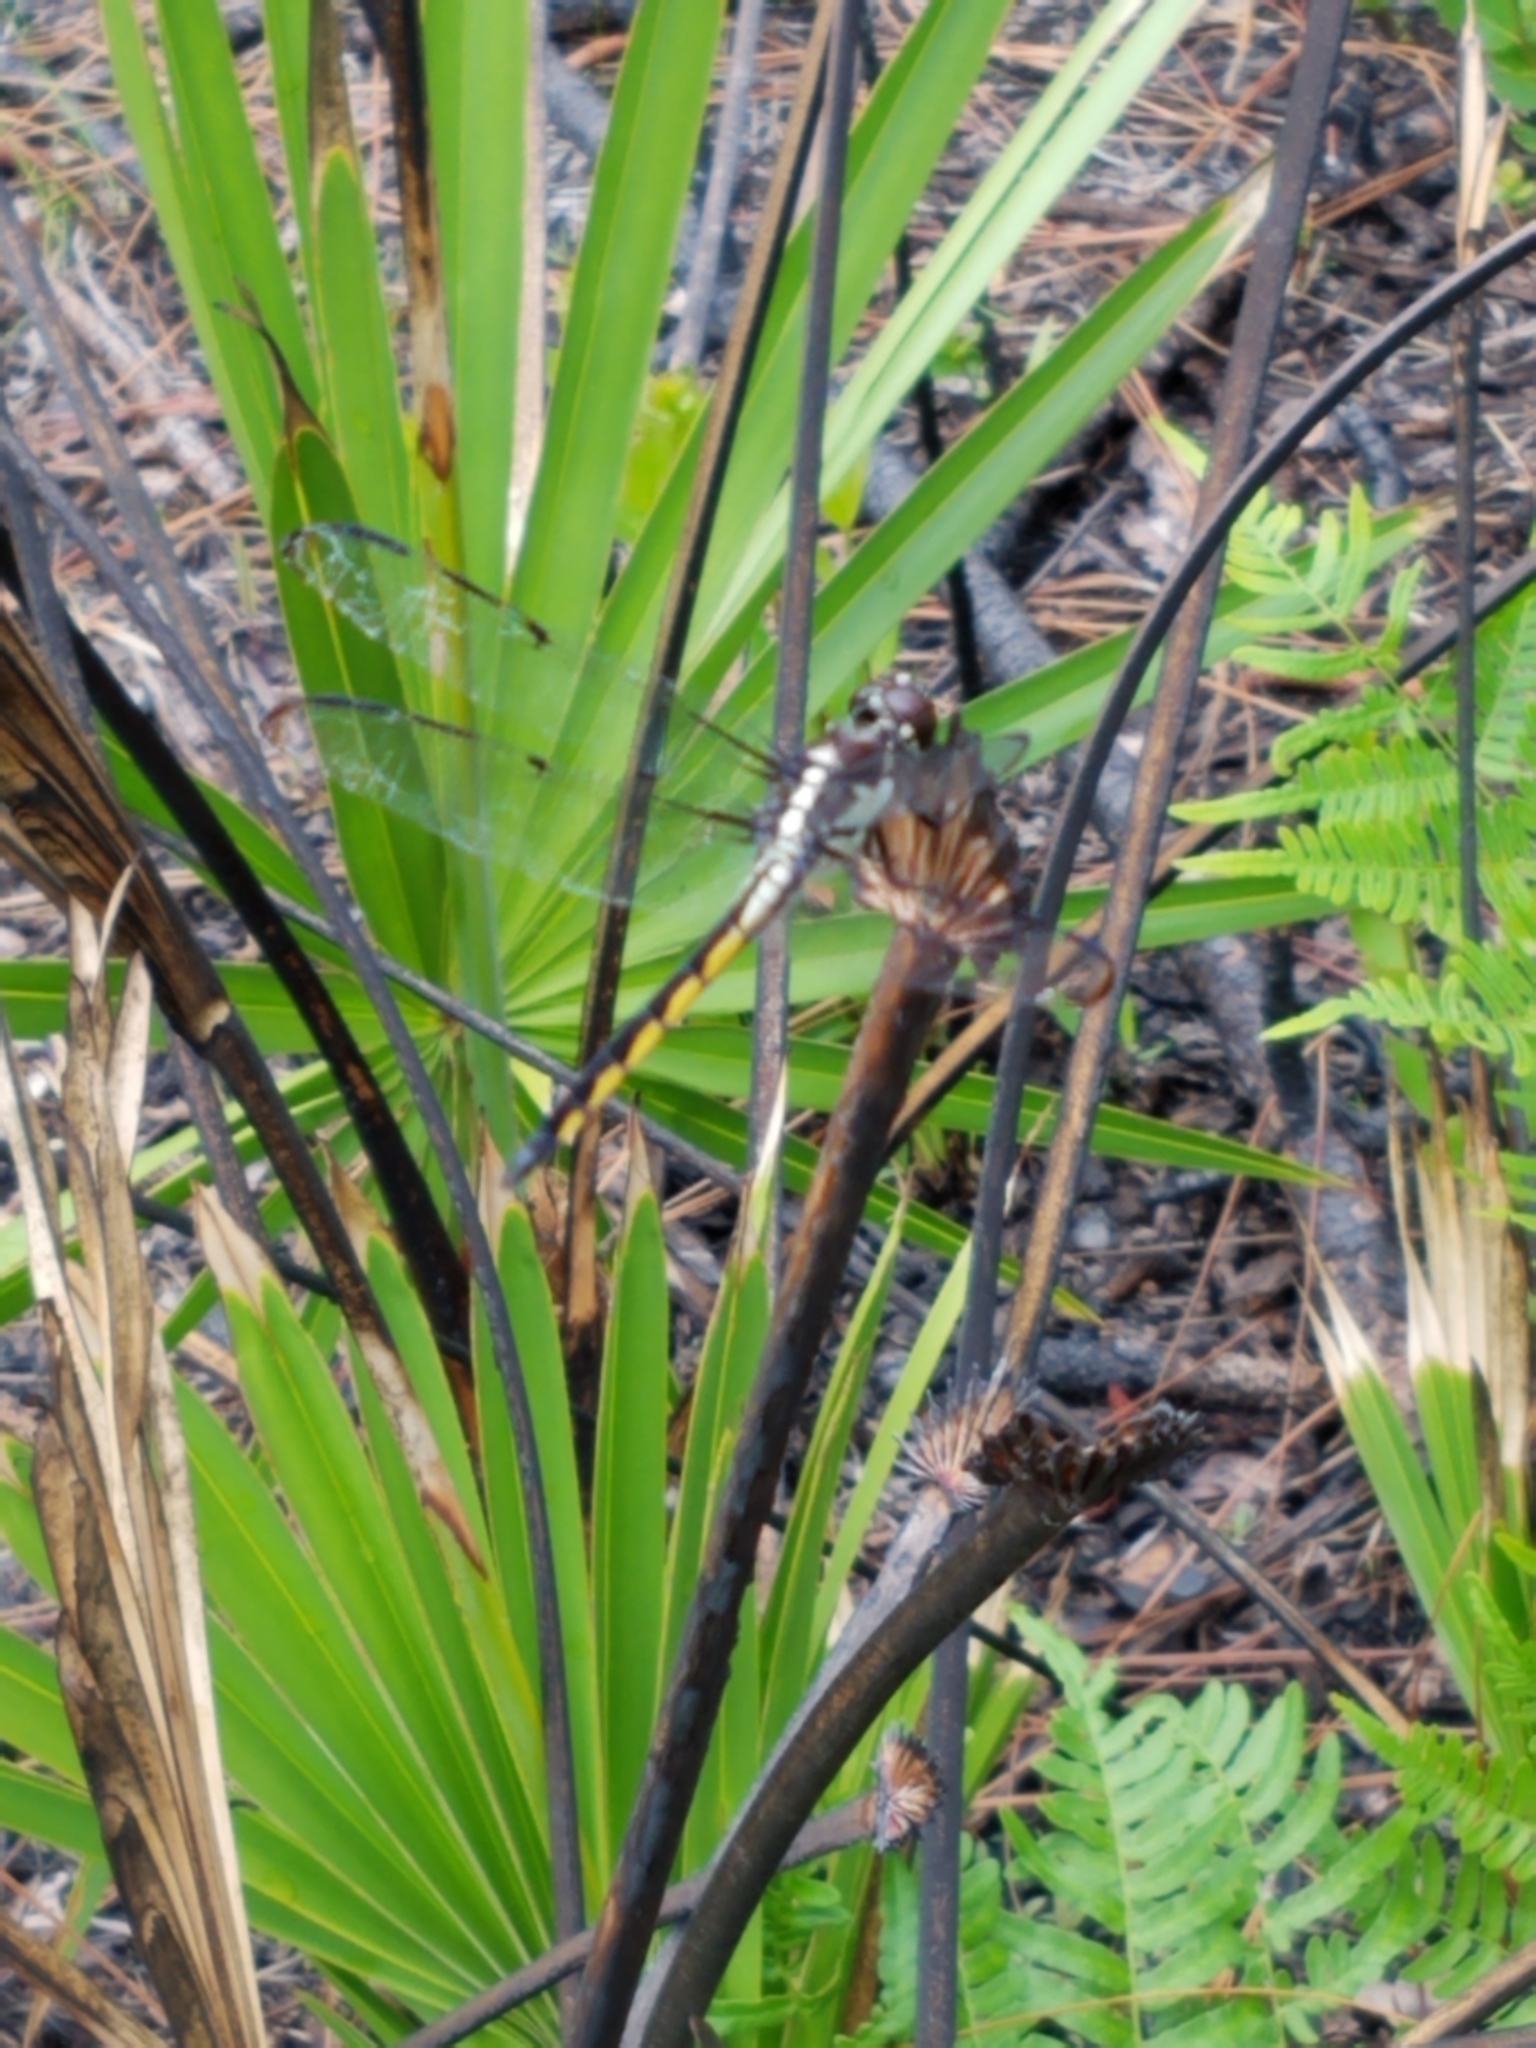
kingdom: Animalia
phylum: Arthropoda
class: Insecta
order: Odonata
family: Libellulidae
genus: Libellula
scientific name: Libellula axilena
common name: Bar-winged skimmer
